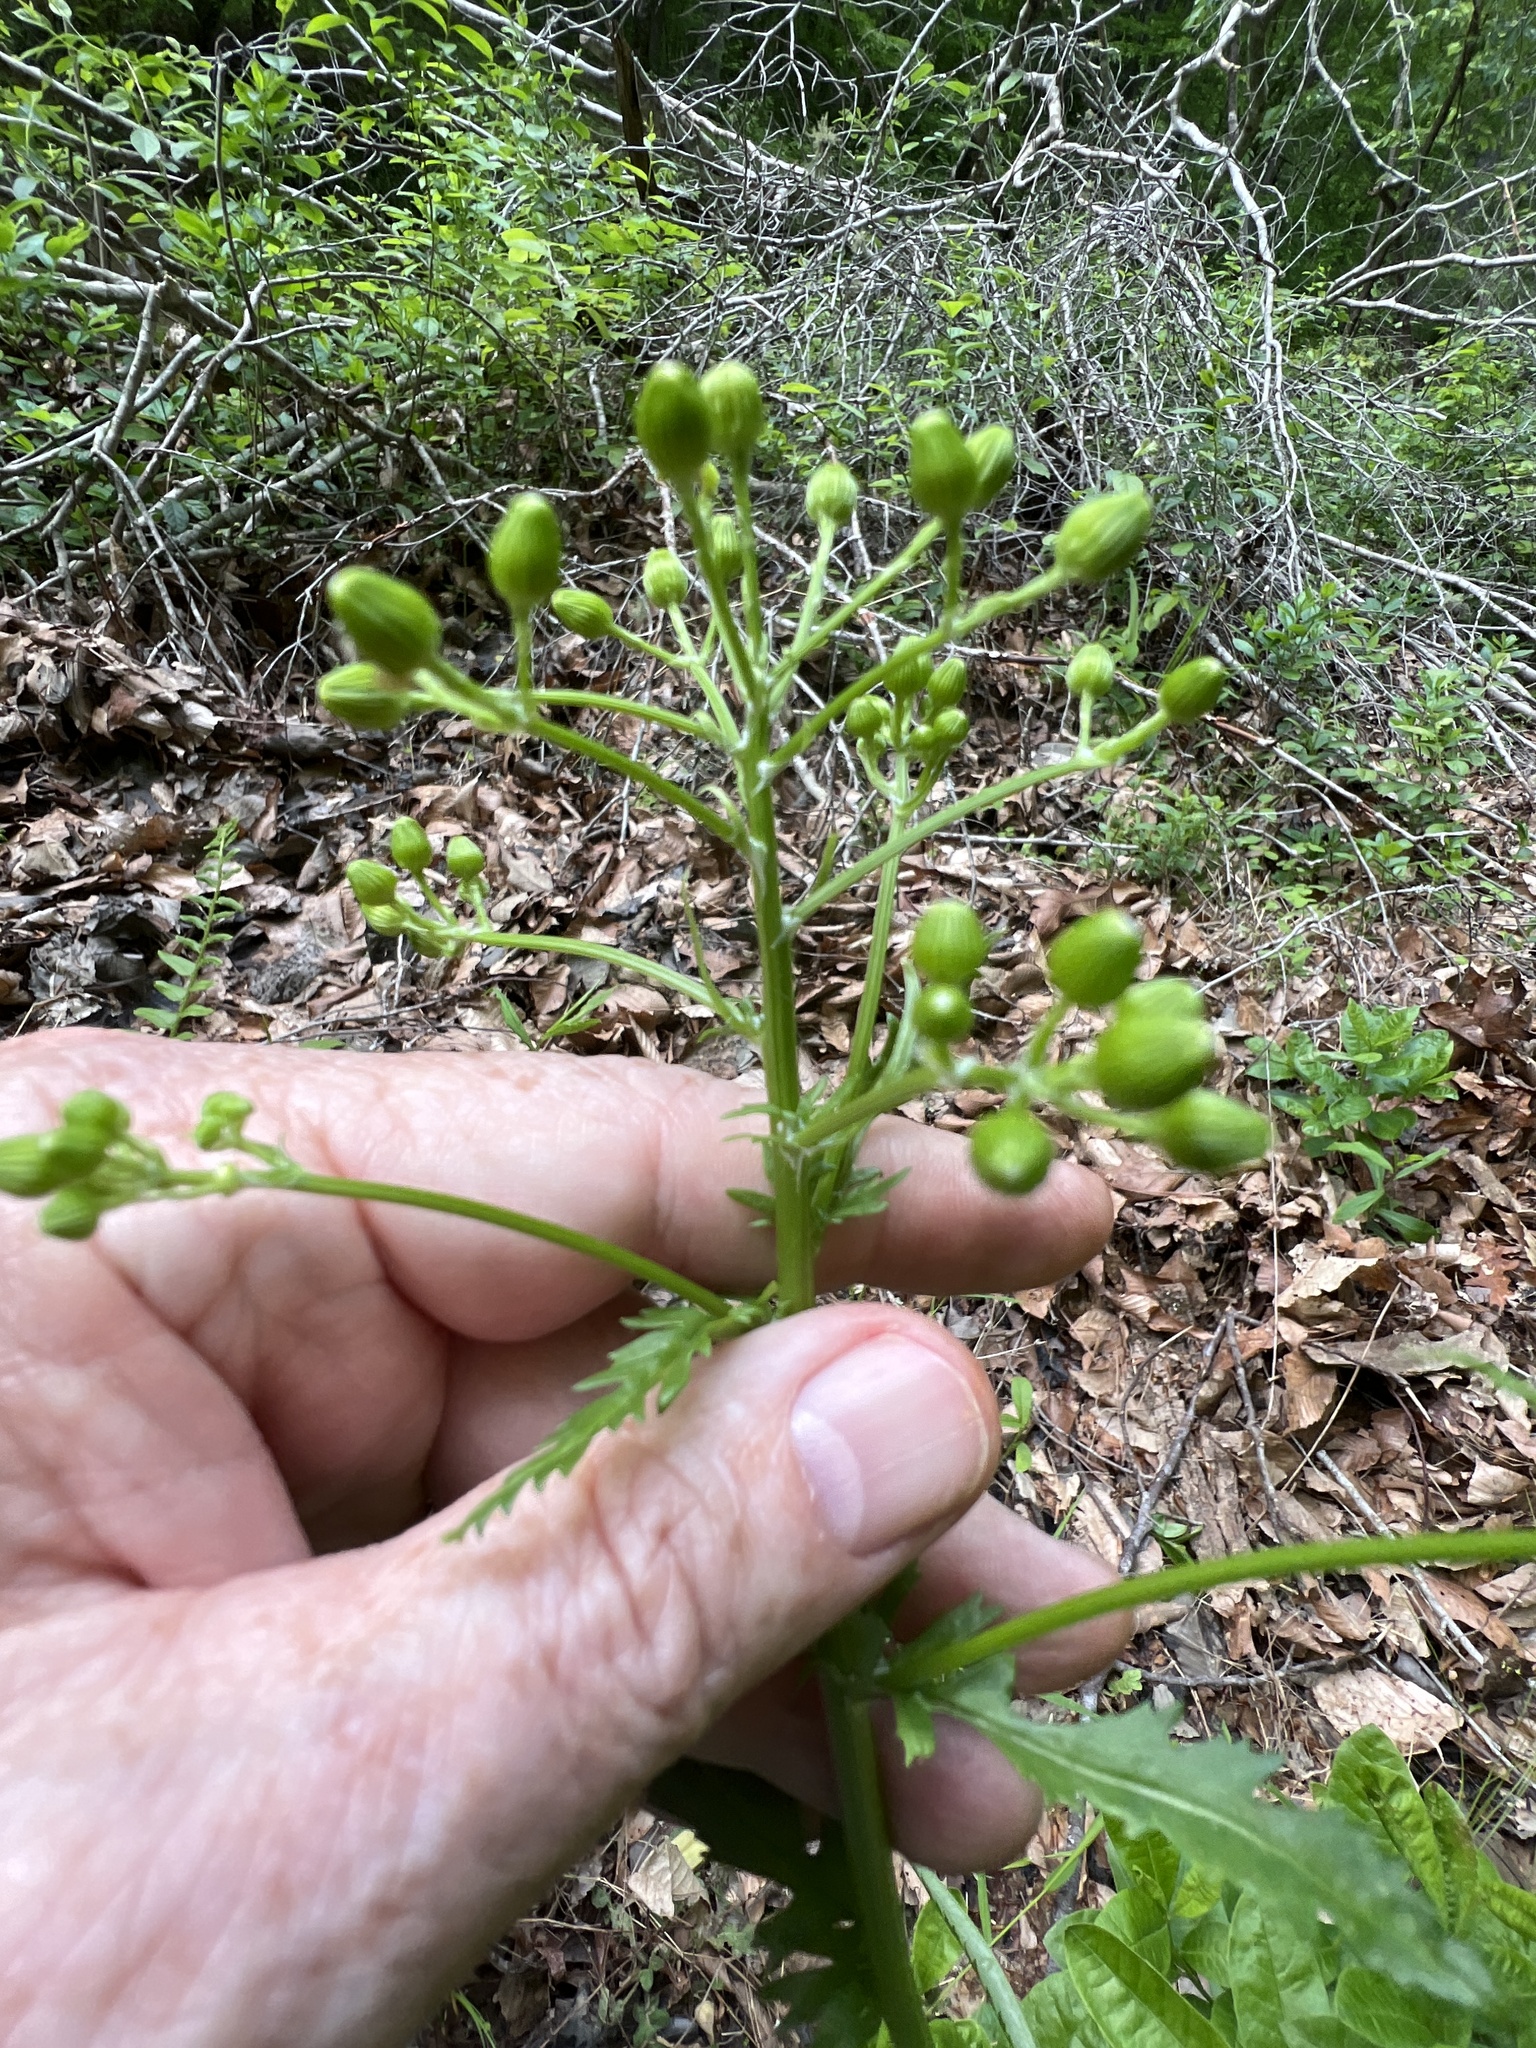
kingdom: Plantae
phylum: Tracheophyta
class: Magnoliopsida
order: Asterales
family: Asteraceae
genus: Packera
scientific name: Packera anonyma
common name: Small ragwort
